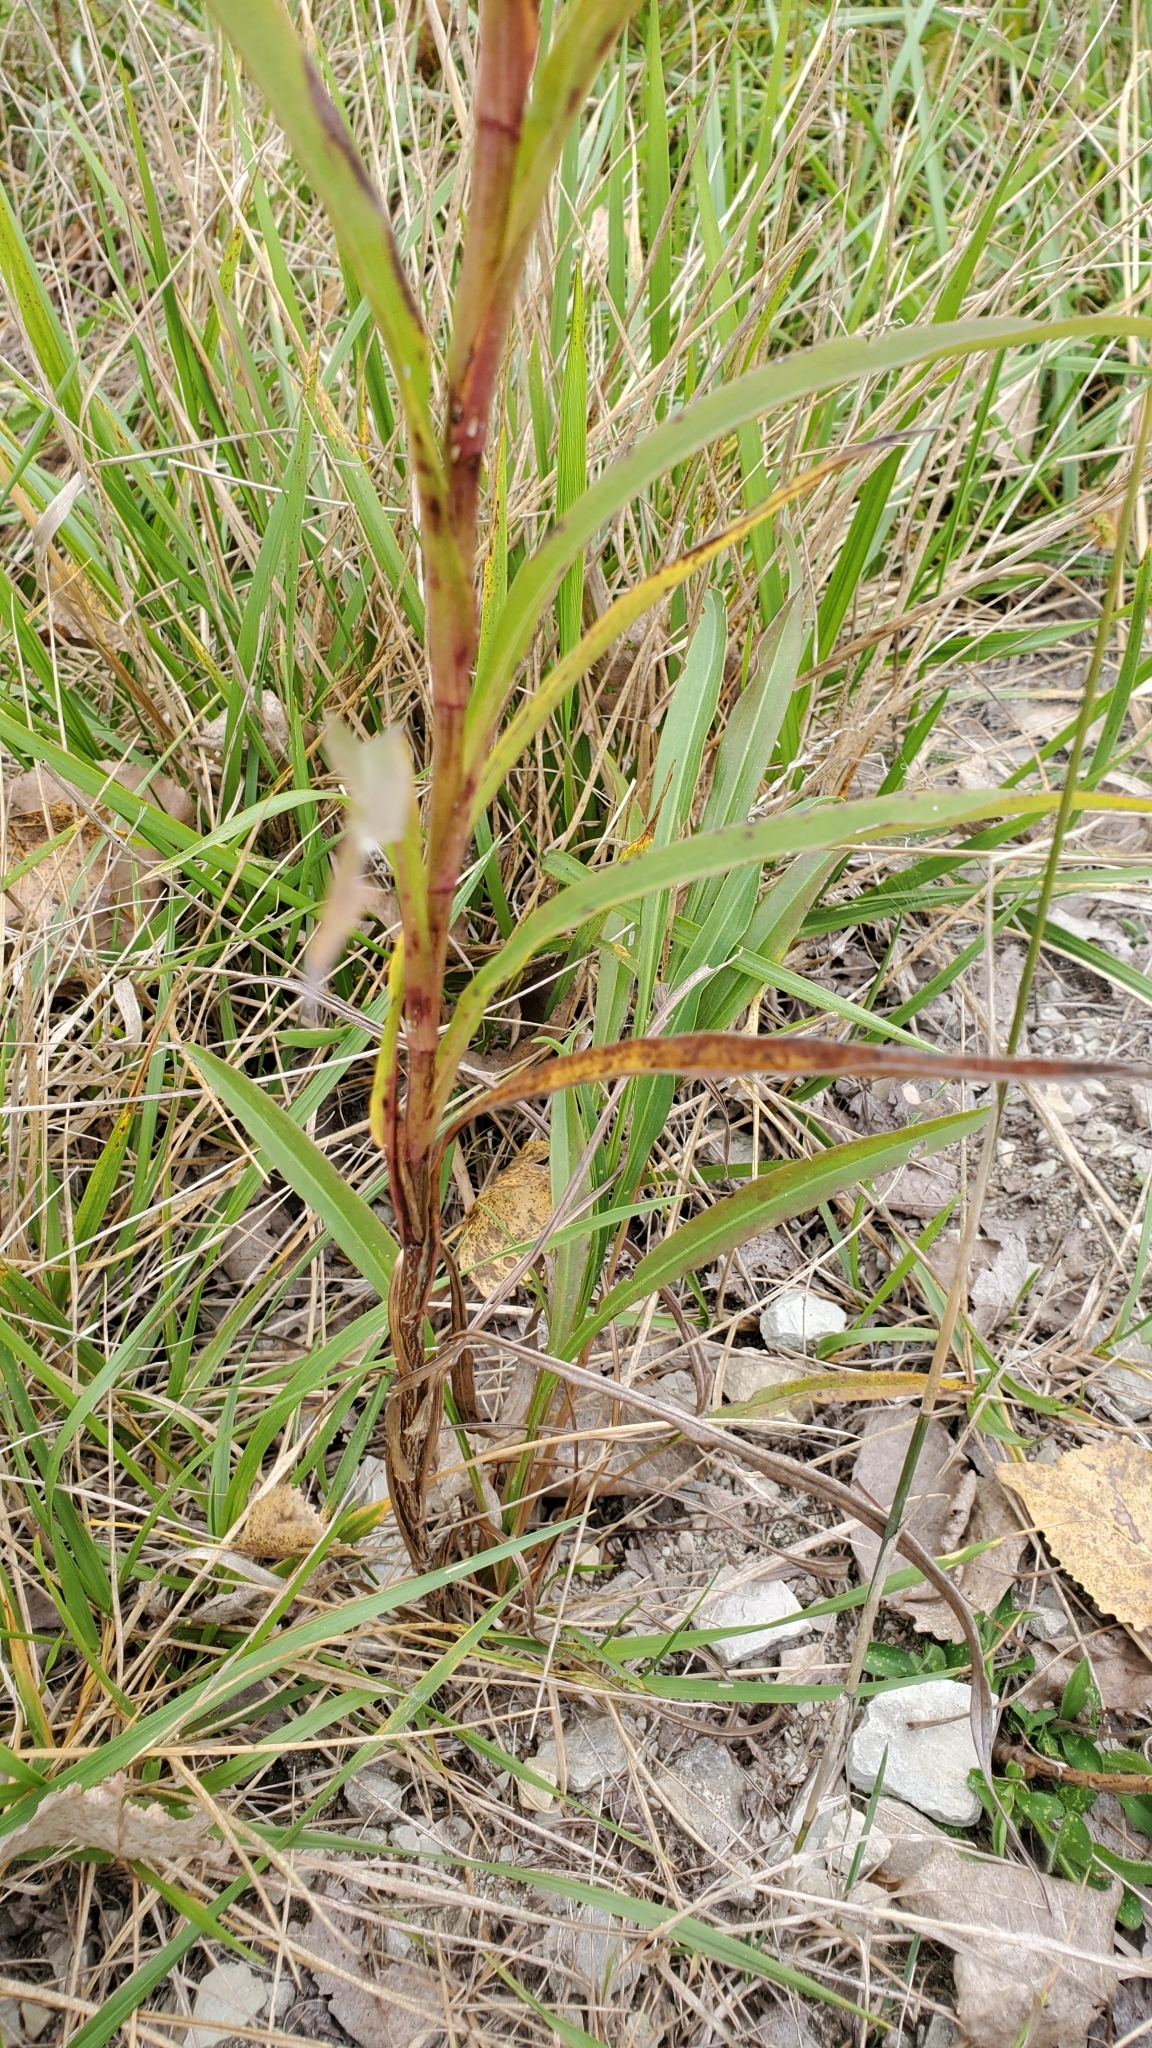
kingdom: Plantae
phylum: Tracheophyta
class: Magnoliopsida
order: Asterales
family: Asteraceae
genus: Solidago
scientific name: Solidago riddellii
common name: Riddell's goldenrod
